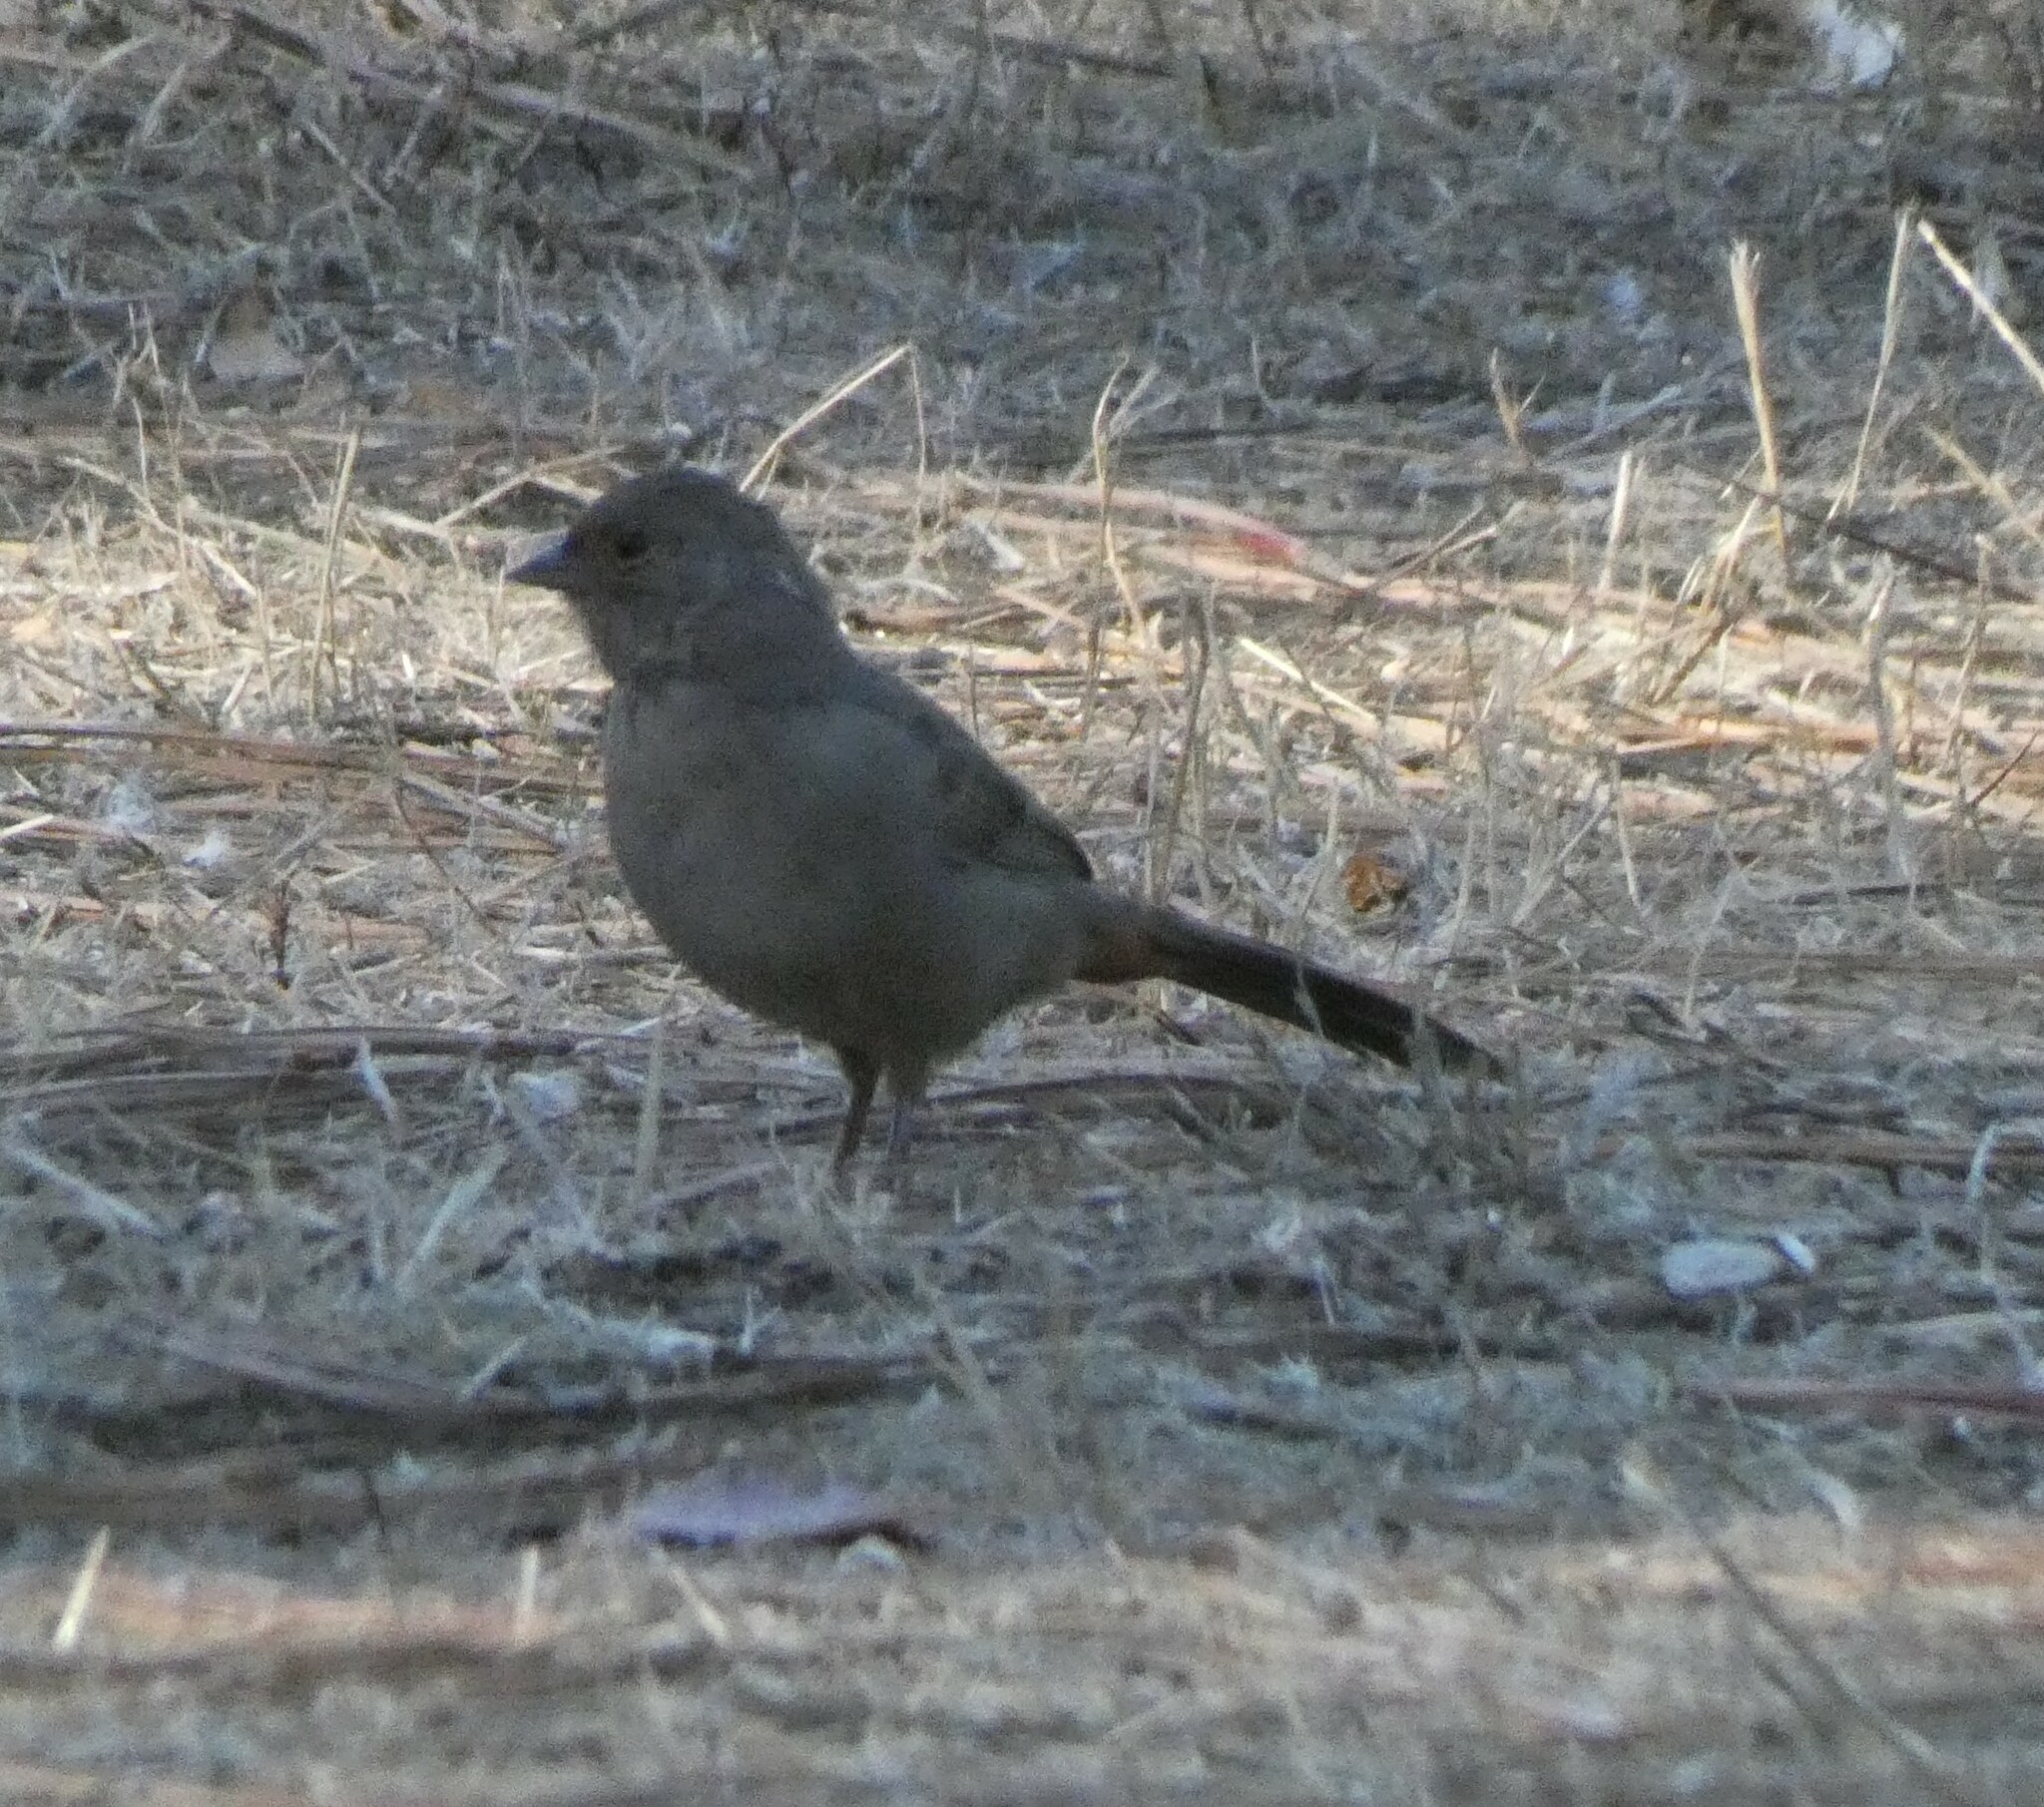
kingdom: Animalia
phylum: Chordata
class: Aves
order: Passeriformes
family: Passerellidae
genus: Melozone
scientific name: Melozone crissalis
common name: California towhee
